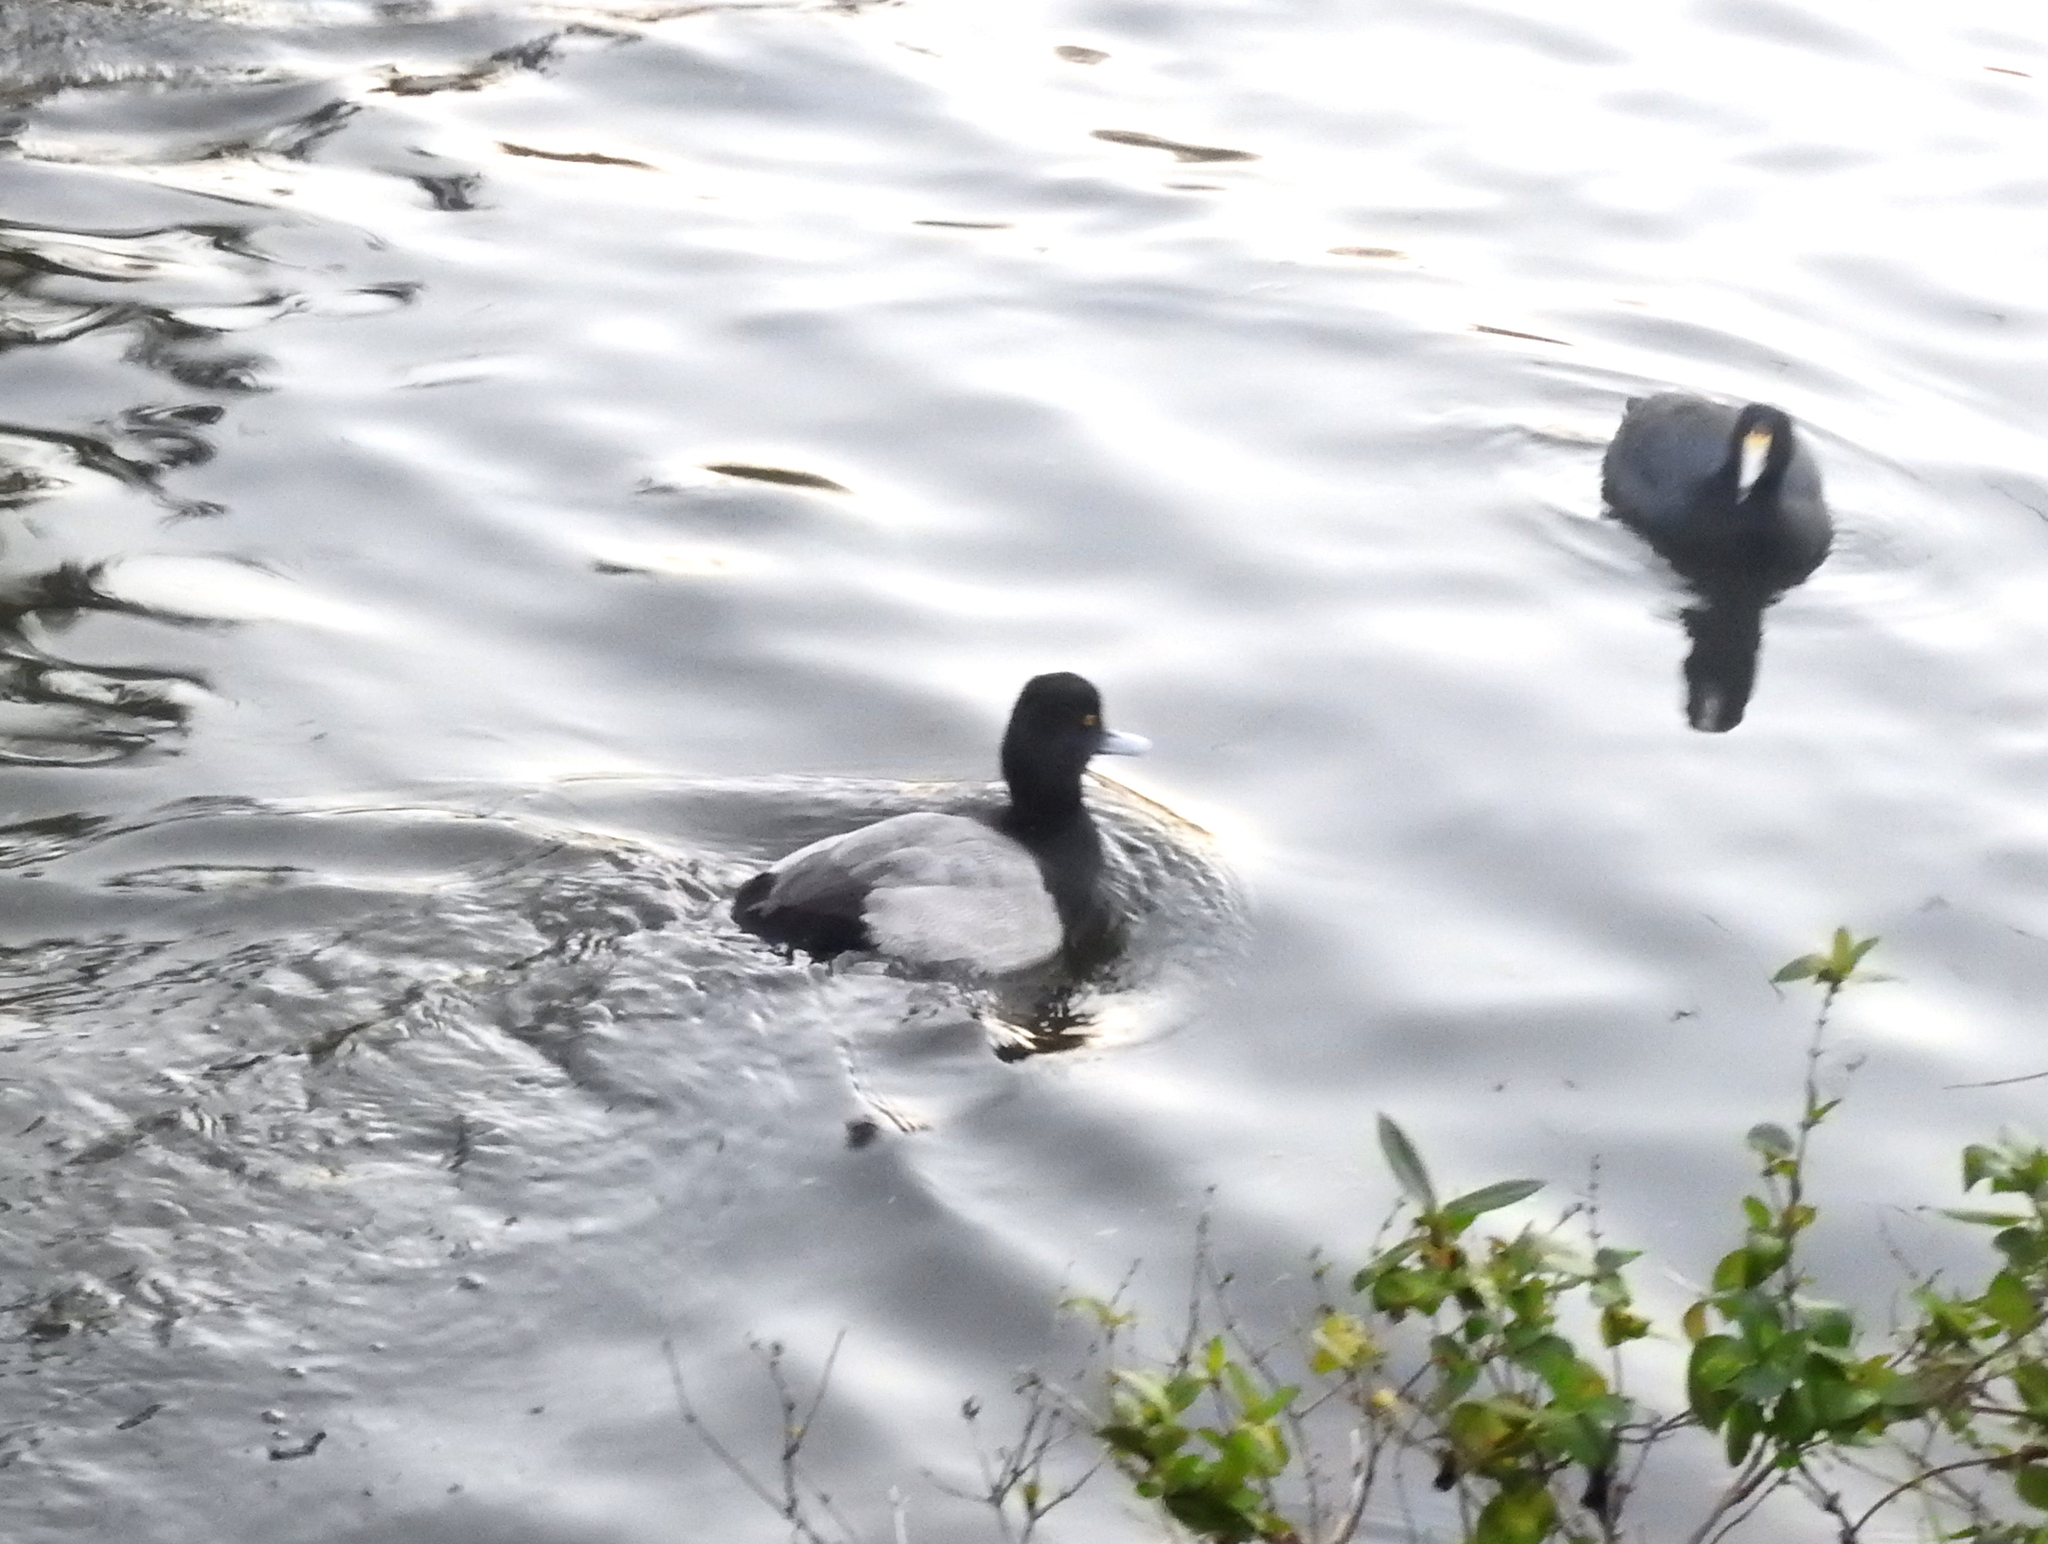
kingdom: Animalia
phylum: Chordata
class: Aves
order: Anseriformes
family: Anatidae
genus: Aythya
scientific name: Aythya affinis
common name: Lesser scaup
